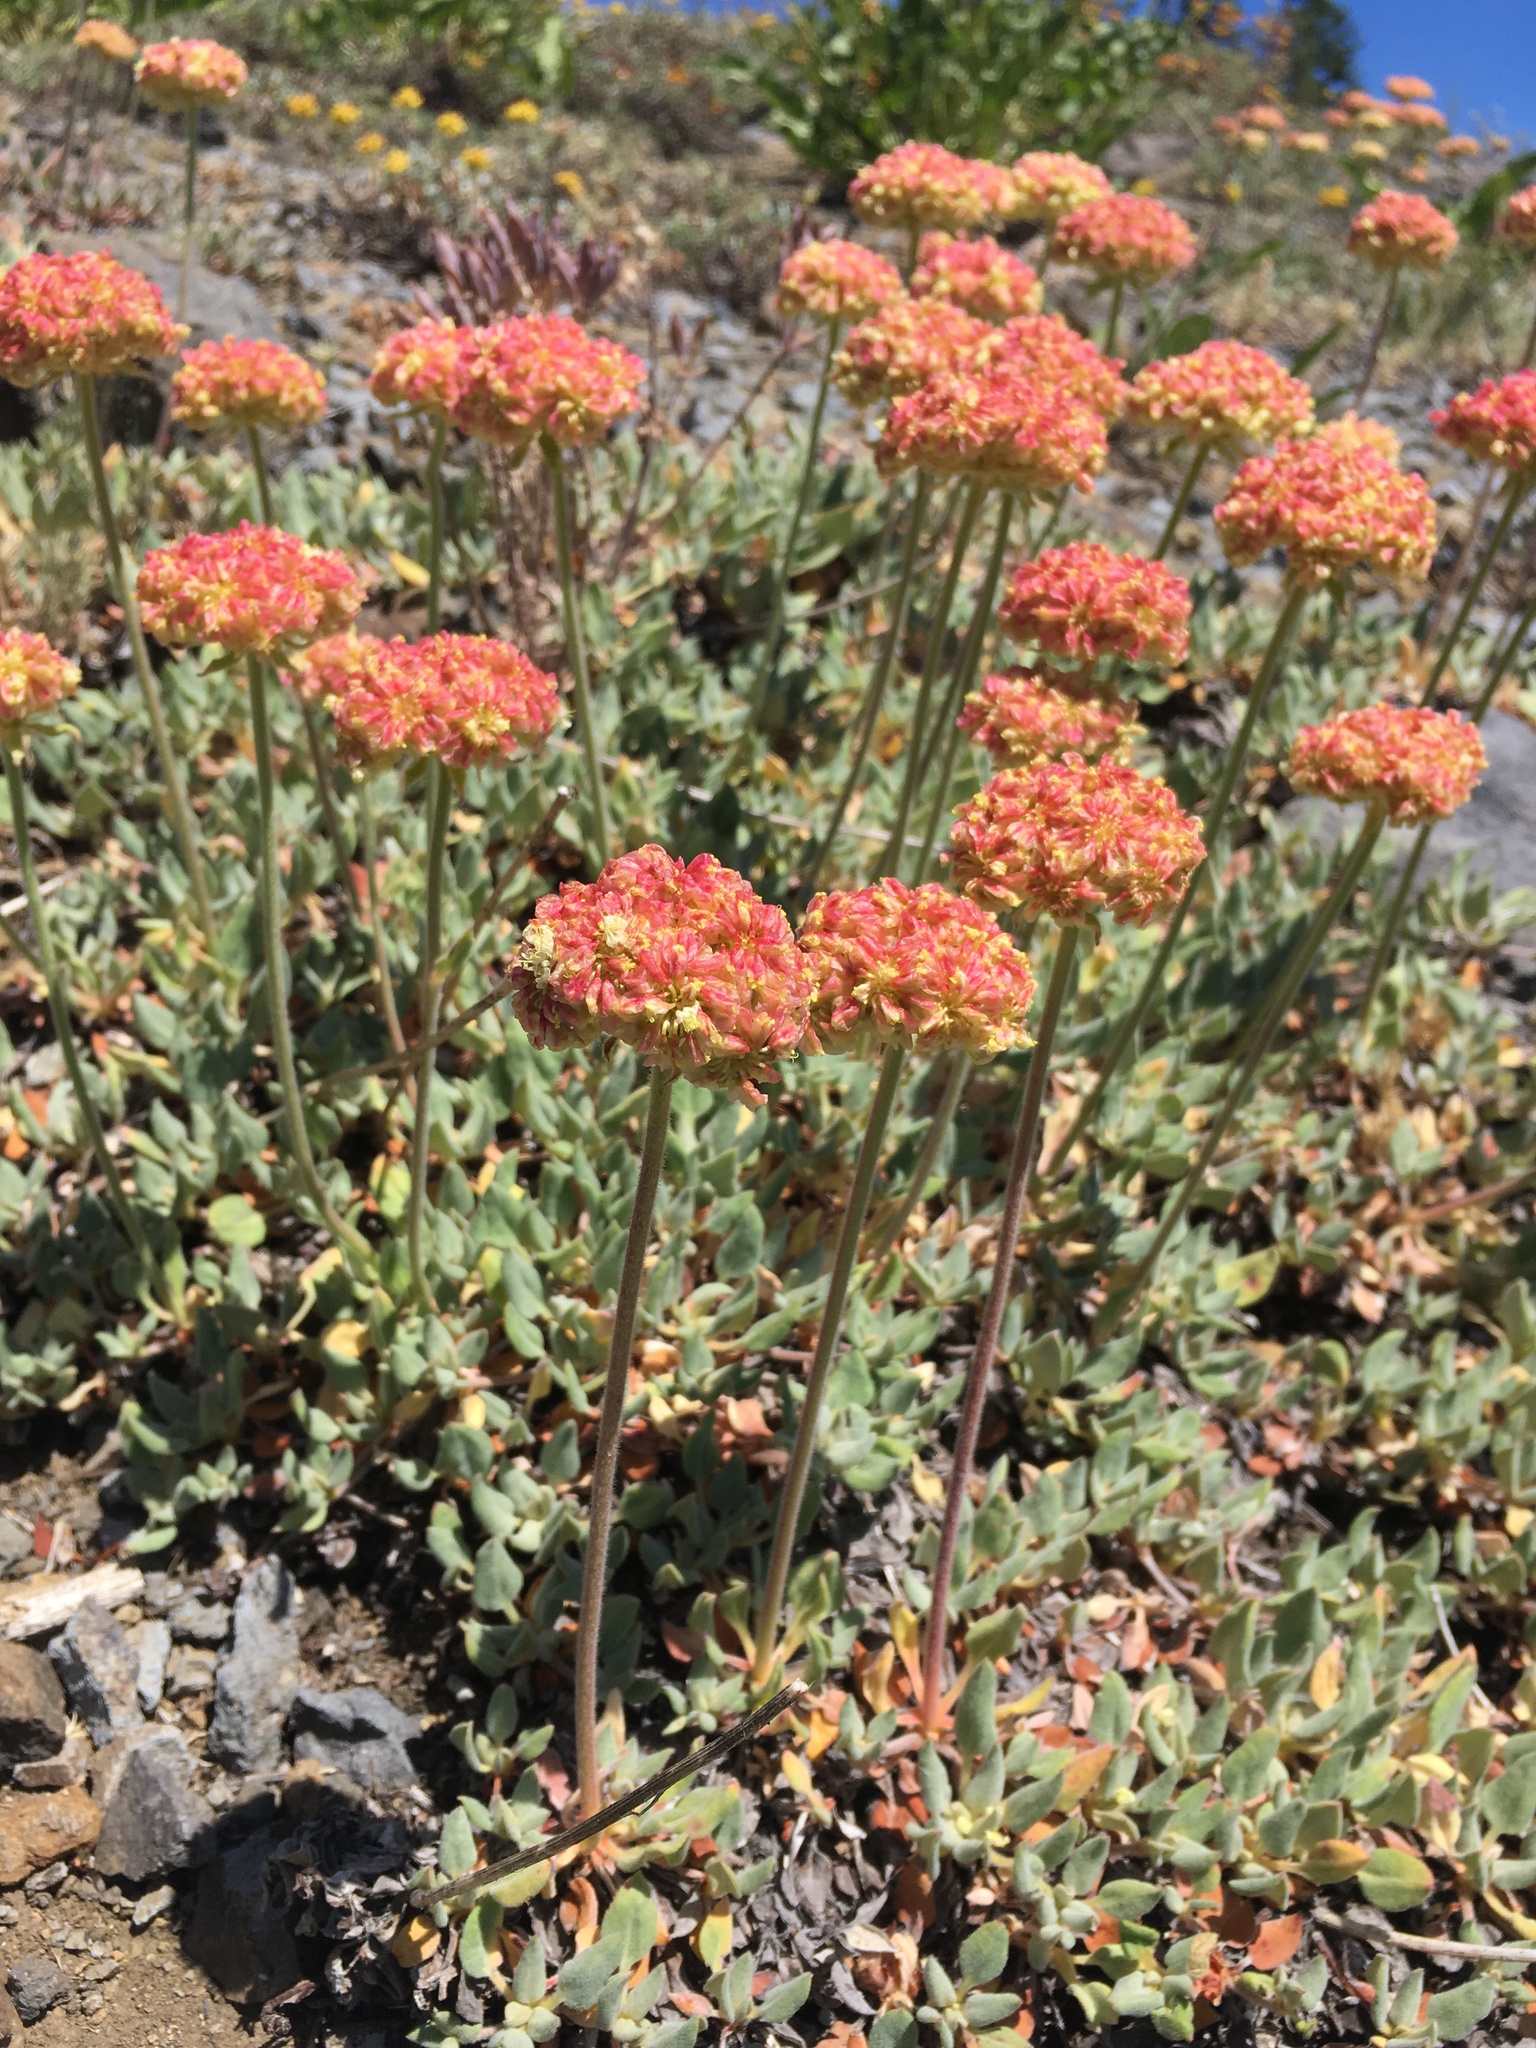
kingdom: Plantae
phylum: Tracheophyta
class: Magnoliopsida
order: Caryophyllales
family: Polygonaceae
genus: Eriogonum
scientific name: Eriogonum ursinum
